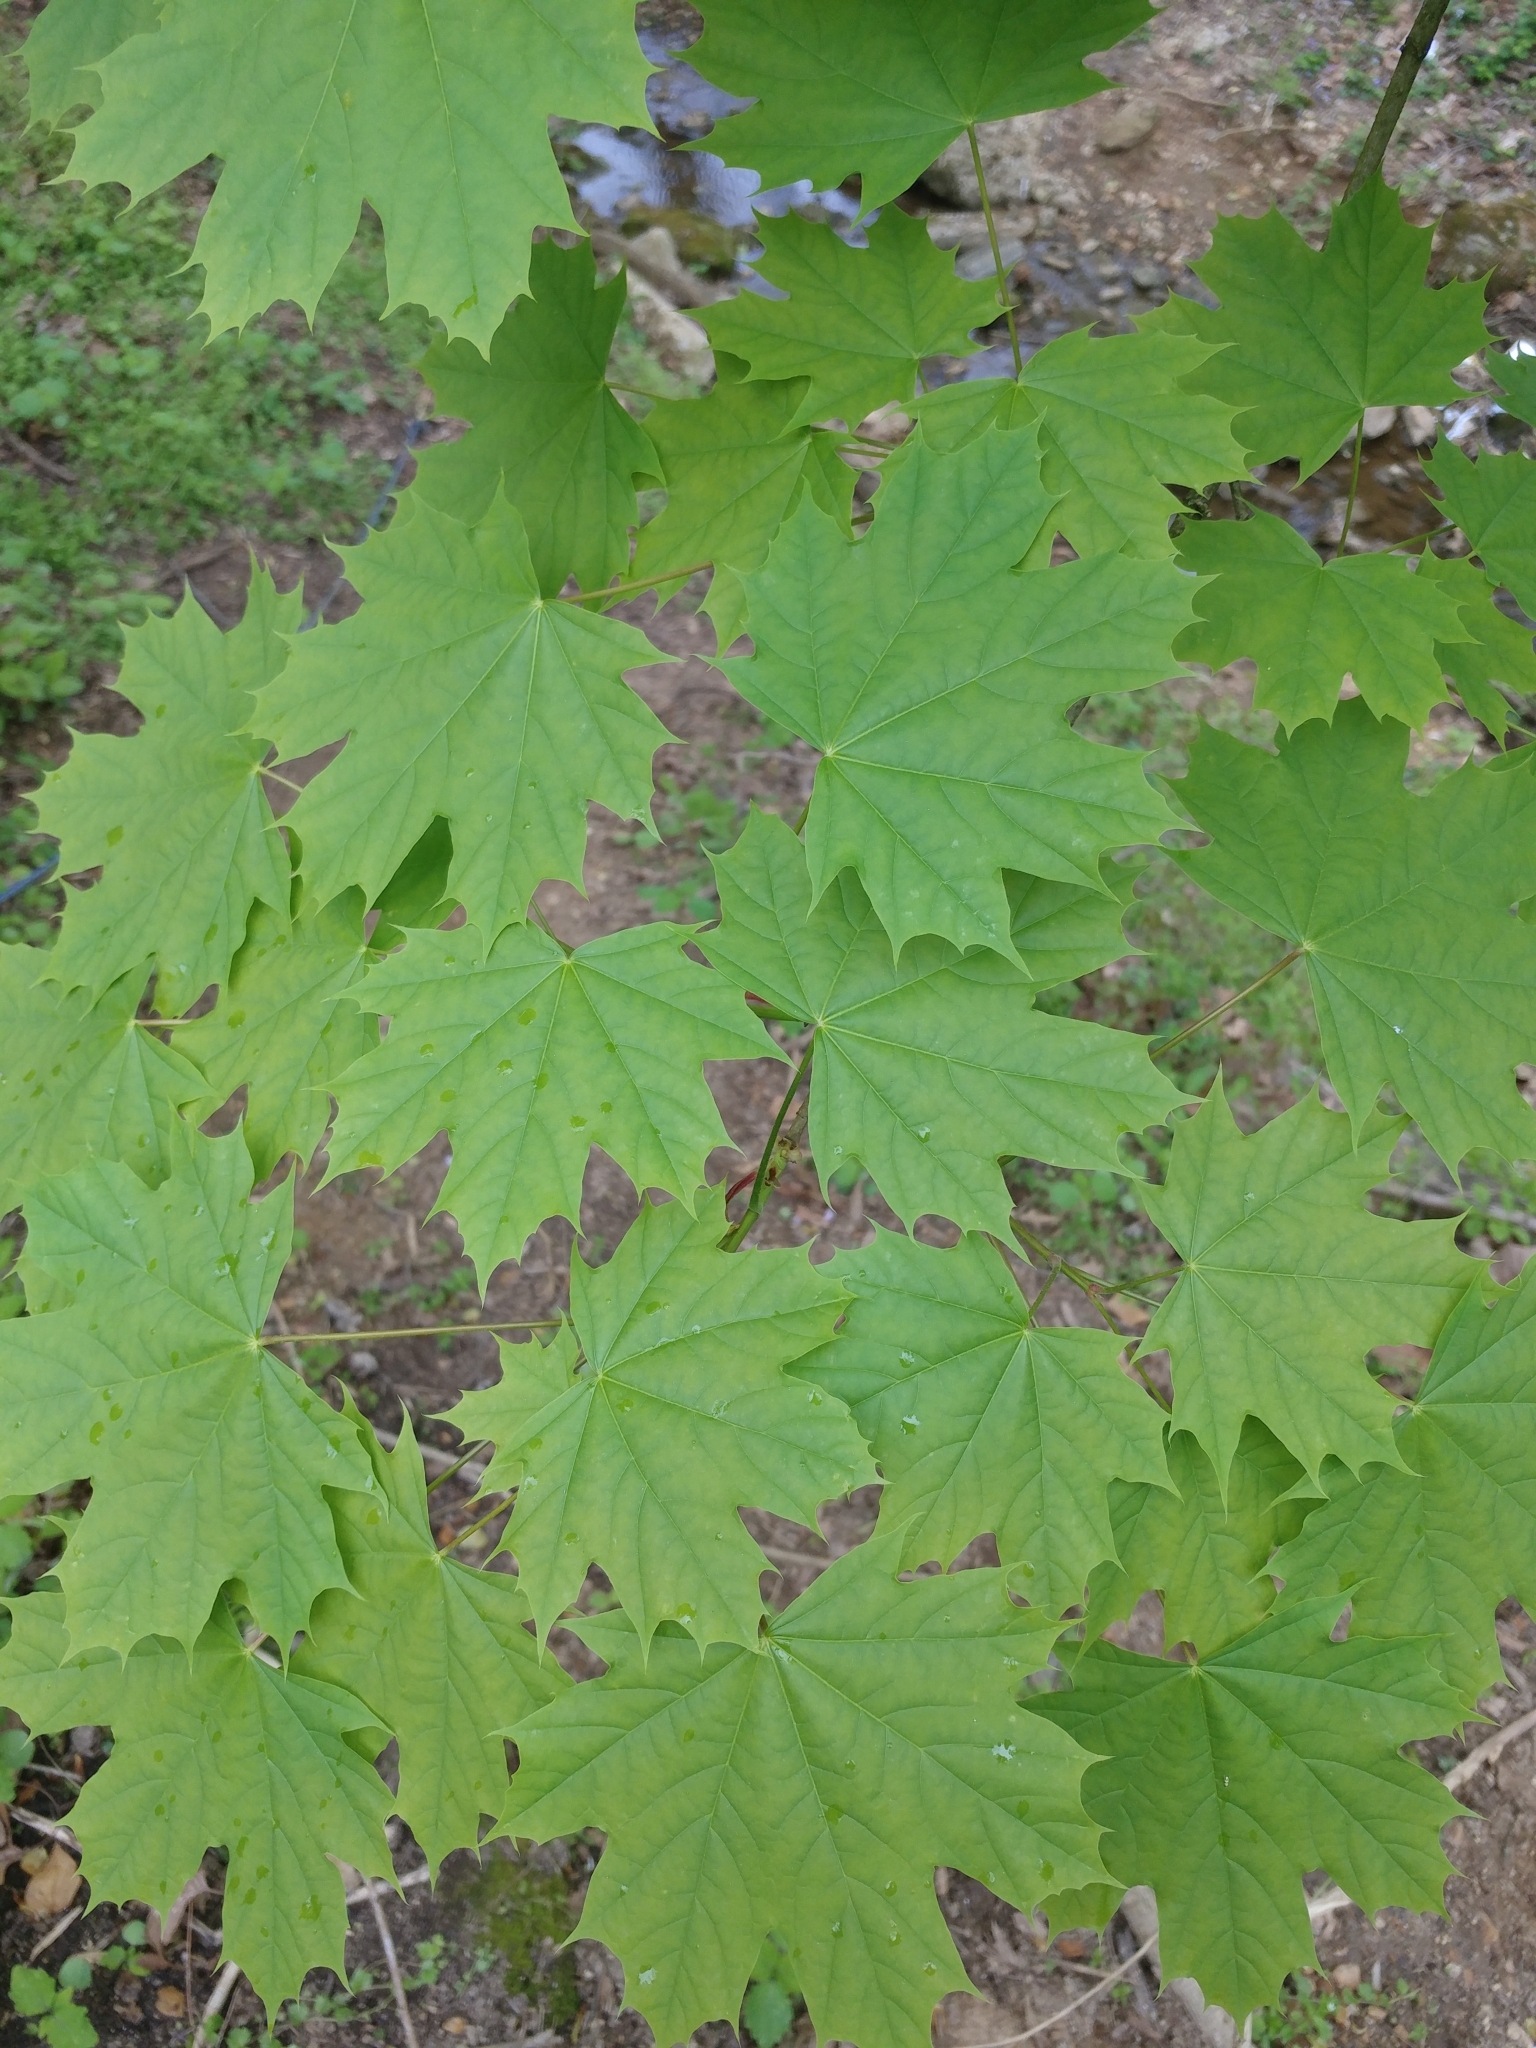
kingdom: Plantae
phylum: Tracheophyta
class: Magnoliopsida
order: Sapindales
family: Sapindaceae
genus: Acer
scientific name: Acer platanoides
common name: Norway maple
